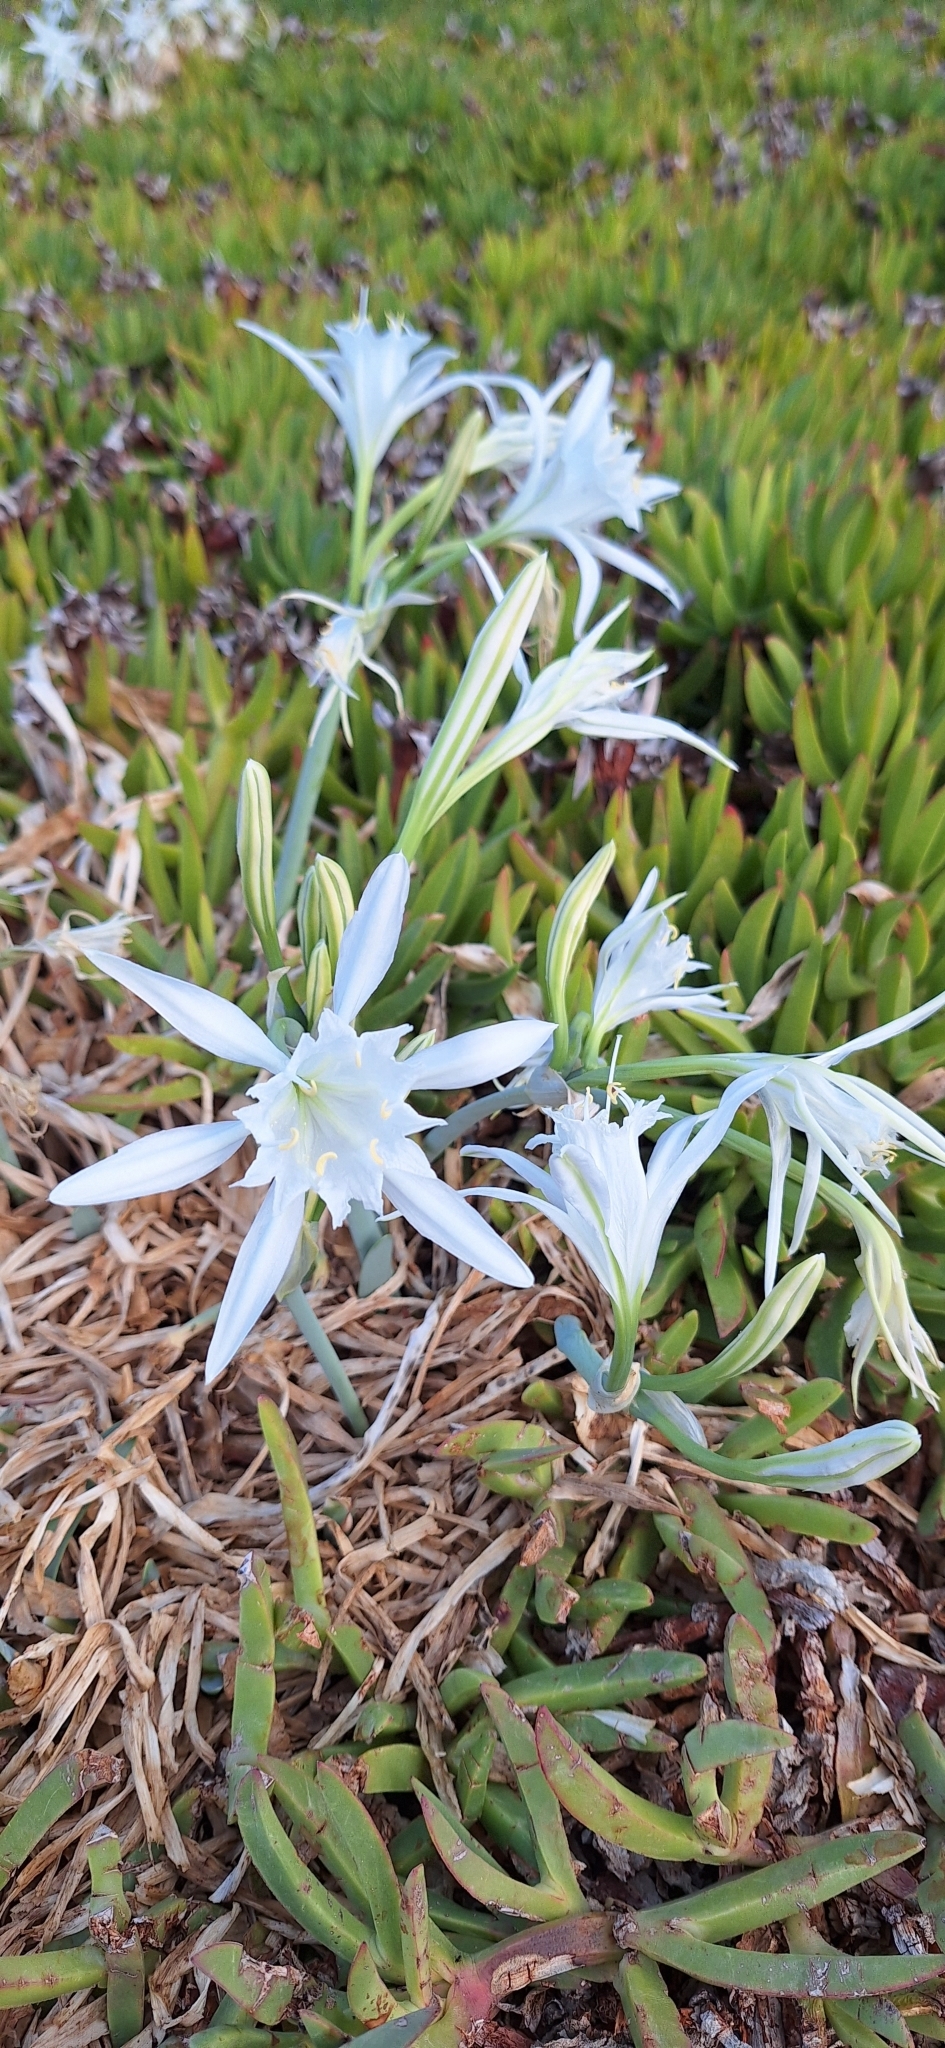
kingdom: Plantae
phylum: Tracheophyta
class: Liliopsida
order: Asparagales
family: Amaryllidaceae
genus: Pancratium
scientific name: Pancratium maritimum
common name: Sea-daffodil
